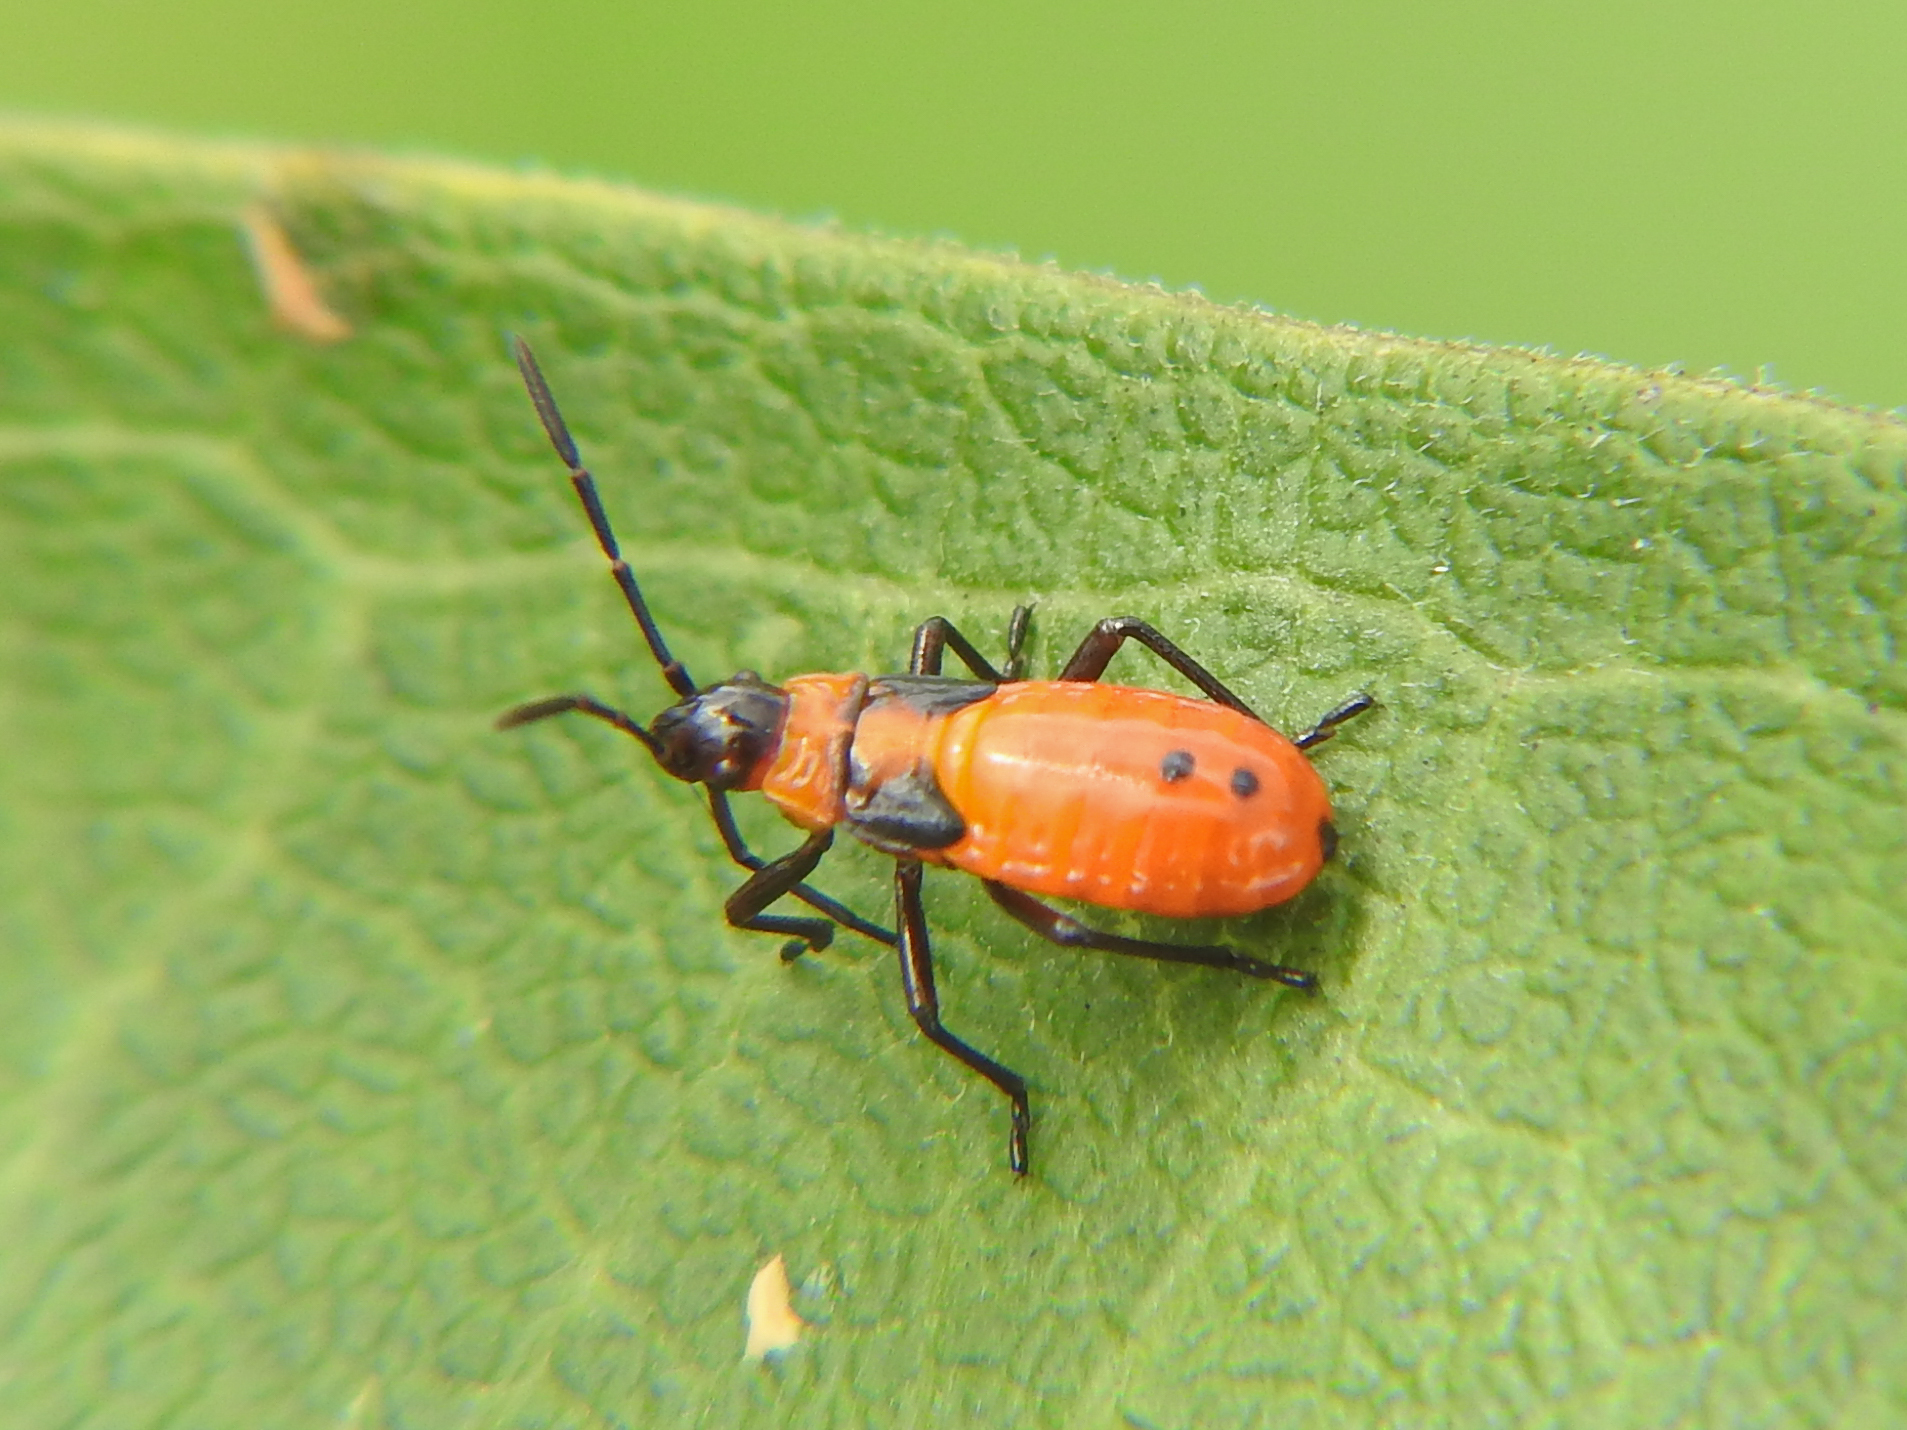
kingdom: Animalia
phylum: Arthropoda
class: Insecta
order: Hemiptera
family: Lygaeidae
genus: Oncopeltus
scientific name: Oncopeltus fasciatus
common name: Large milkweed bug
